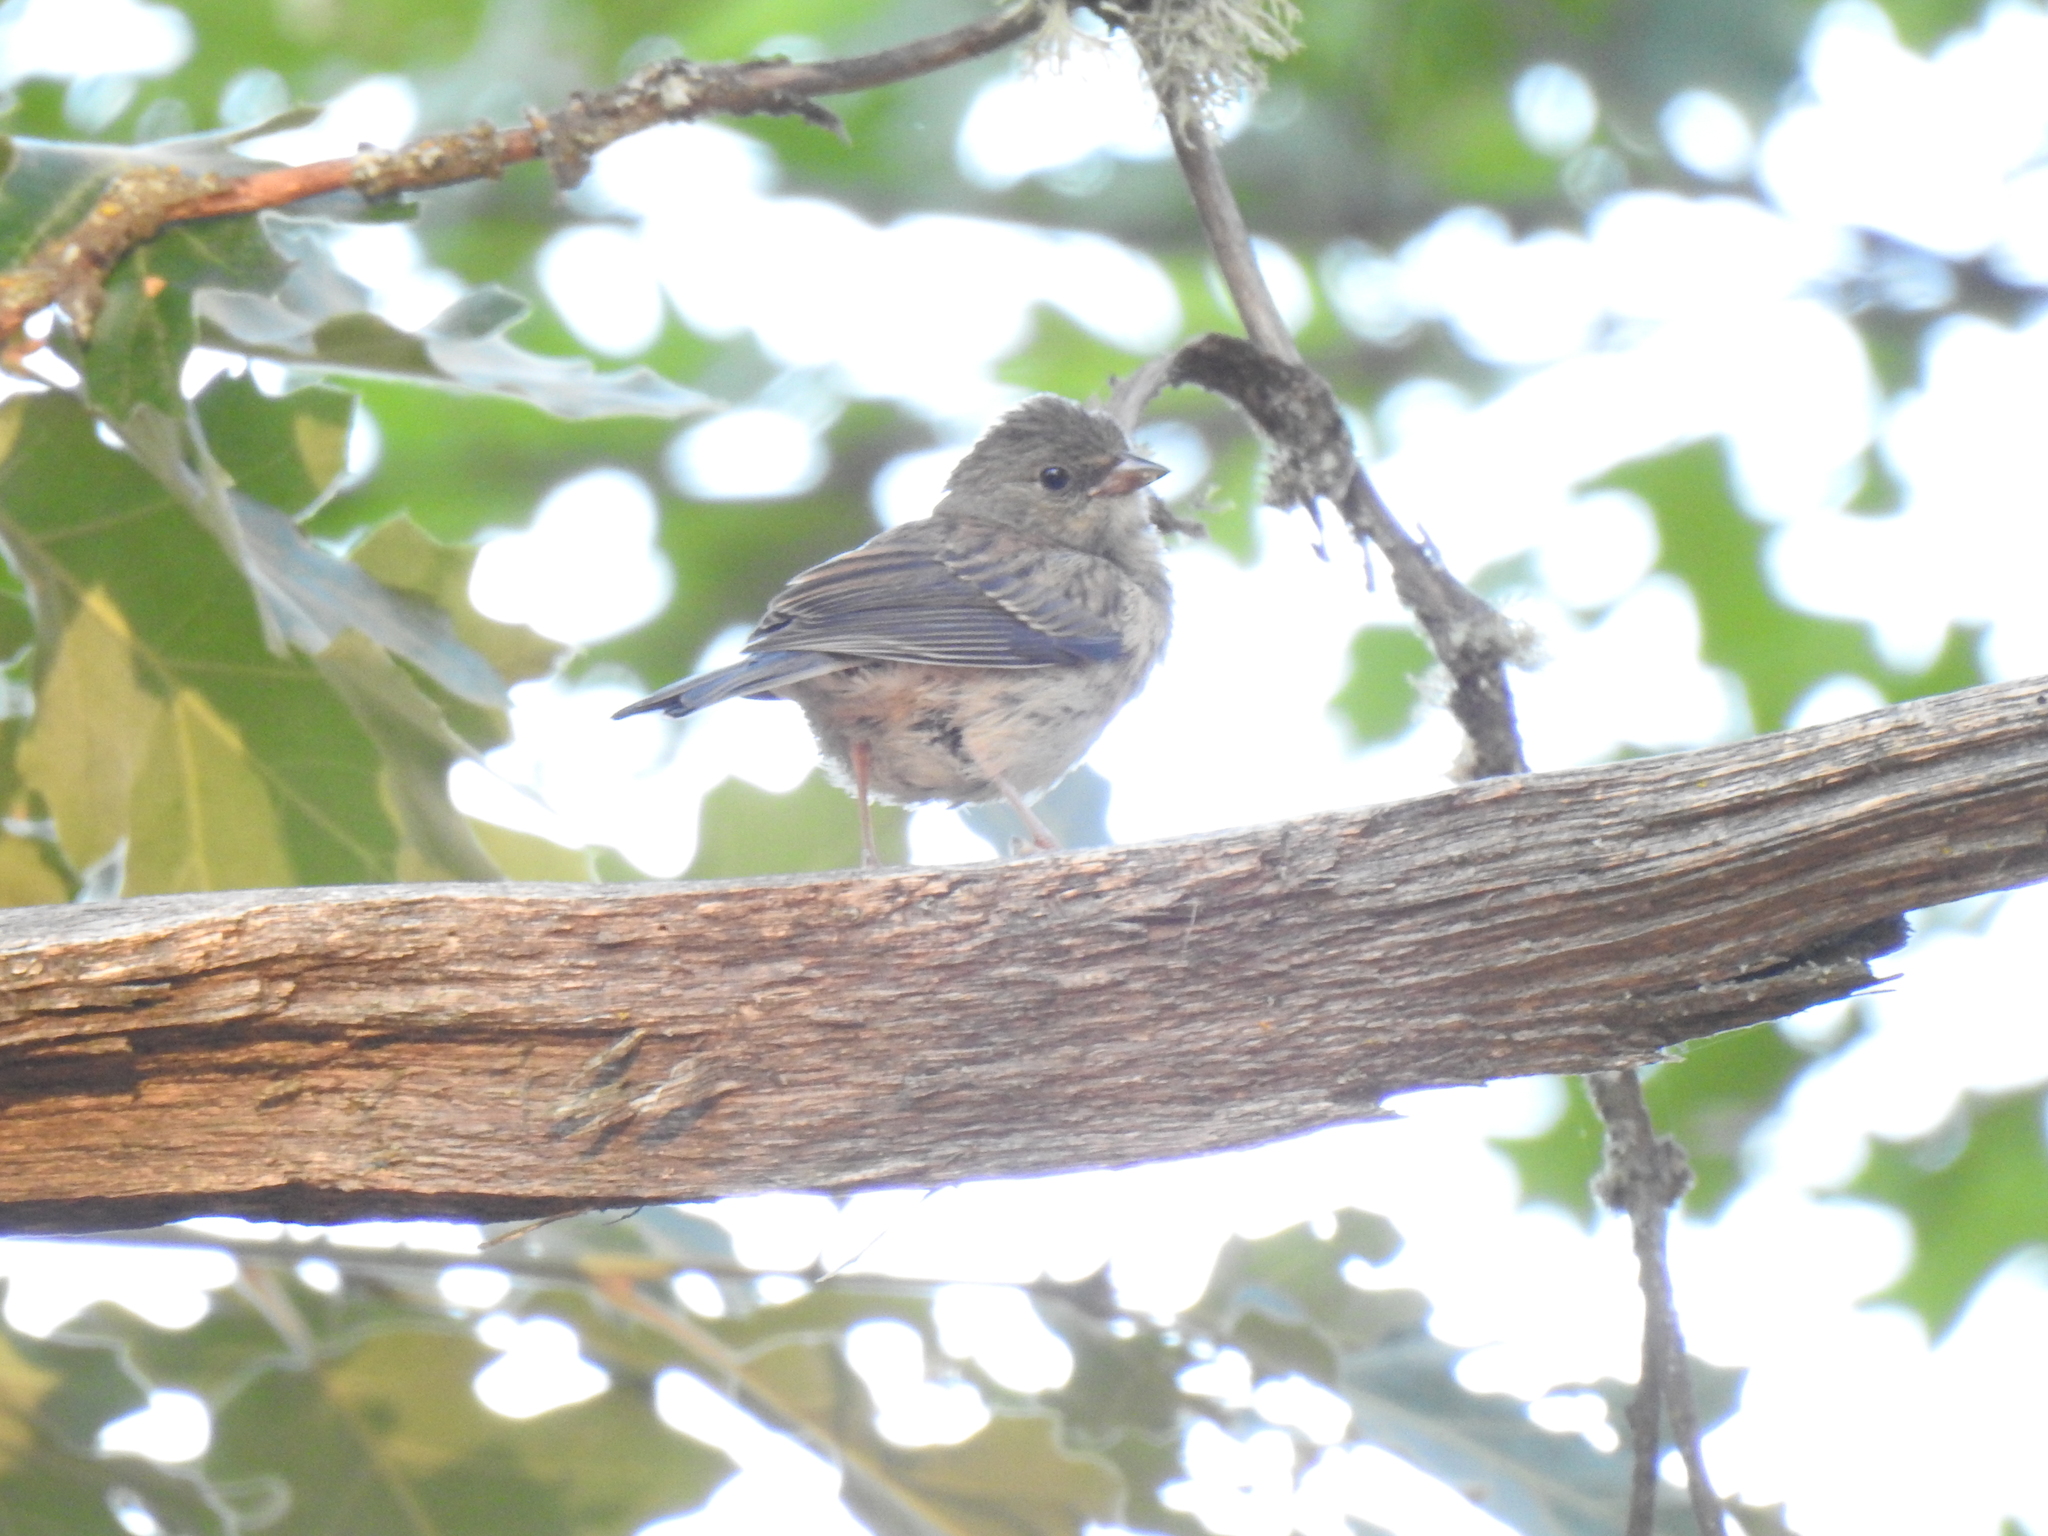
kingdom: Animalia
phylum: Chordata
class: Aves
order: Passeriformes
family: Passerellidae
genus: Junco
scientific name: Junco hyemalis
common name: Dark-eyed junco
